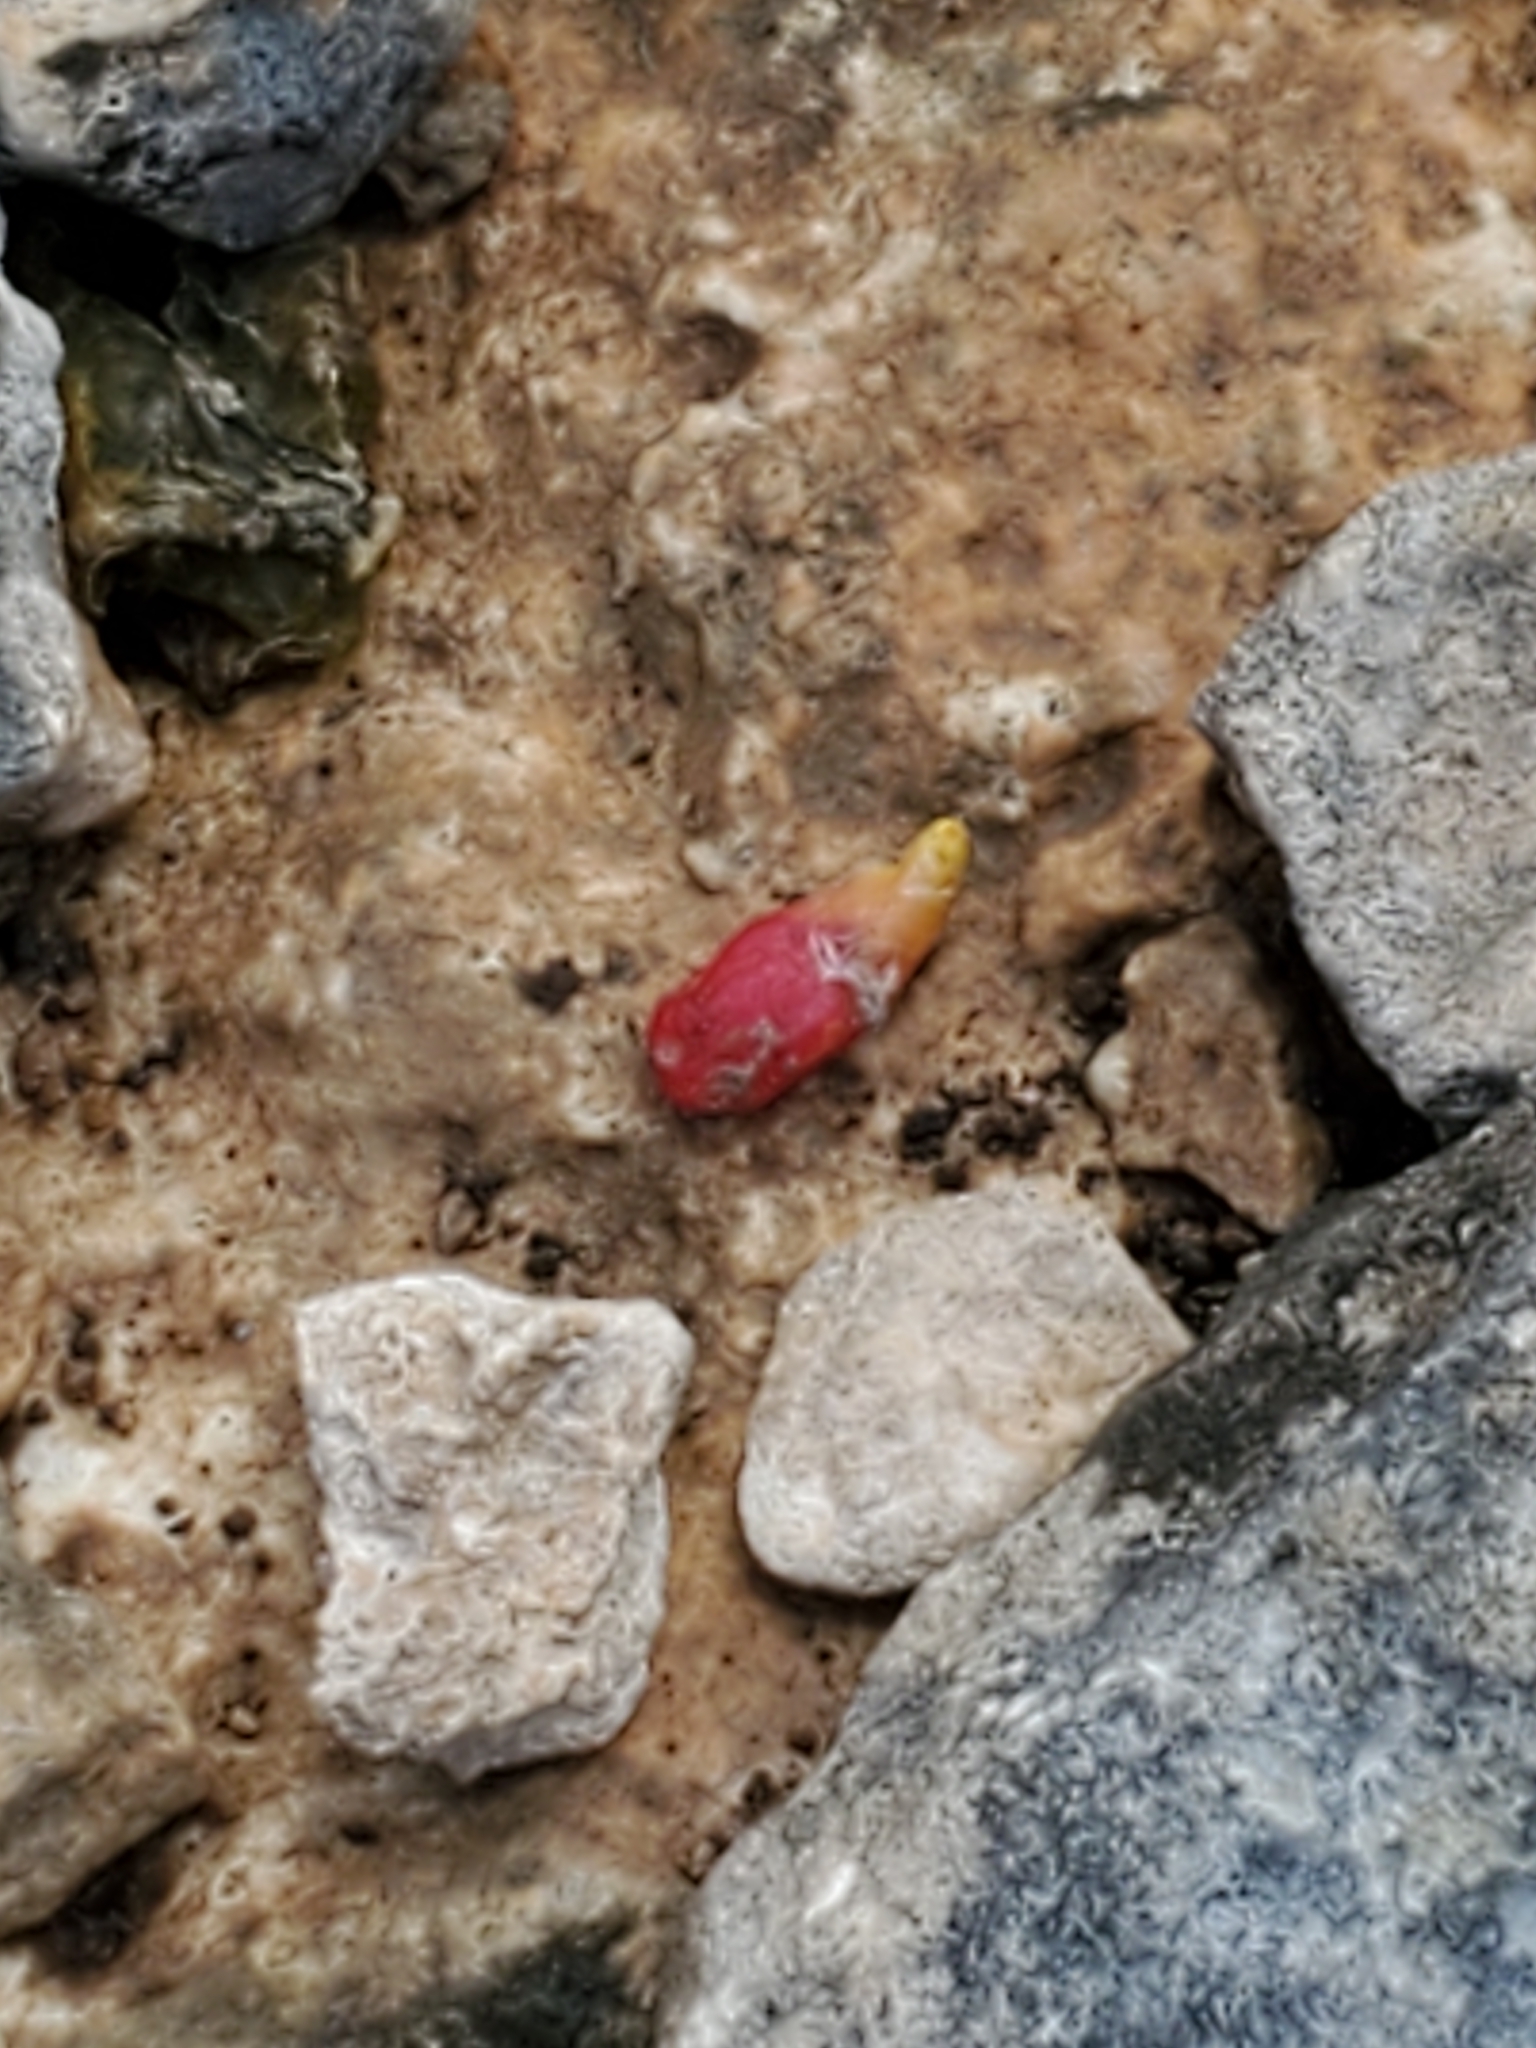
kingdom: Plantae
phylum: Tracheophyta
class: Magnoliopsida
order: Caryophyllales
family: Cactaceae
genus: Epithelantha
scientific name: Epithelantha micromeris
